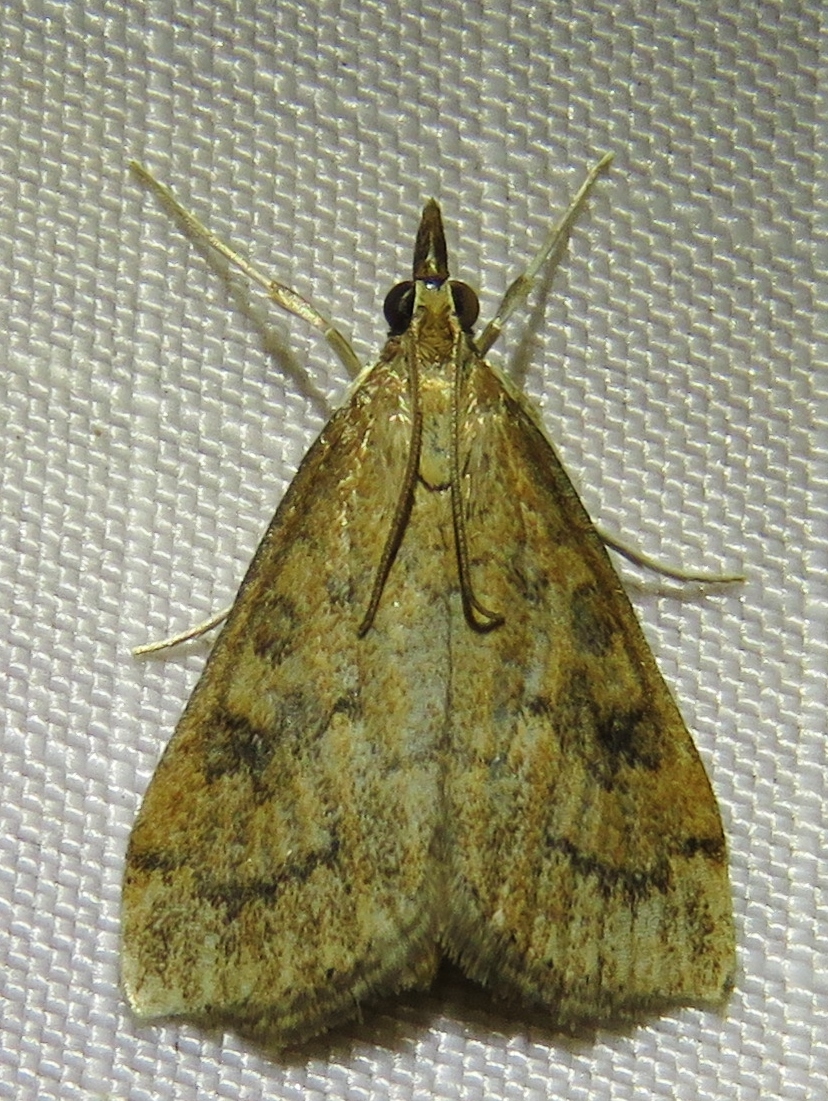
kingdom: Animalia
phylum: Arthropoda
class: Insecta
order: Lepidoptera
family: Crambidae
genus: Udea
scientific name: Udea rubigalis
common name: Celery leaftier moth
